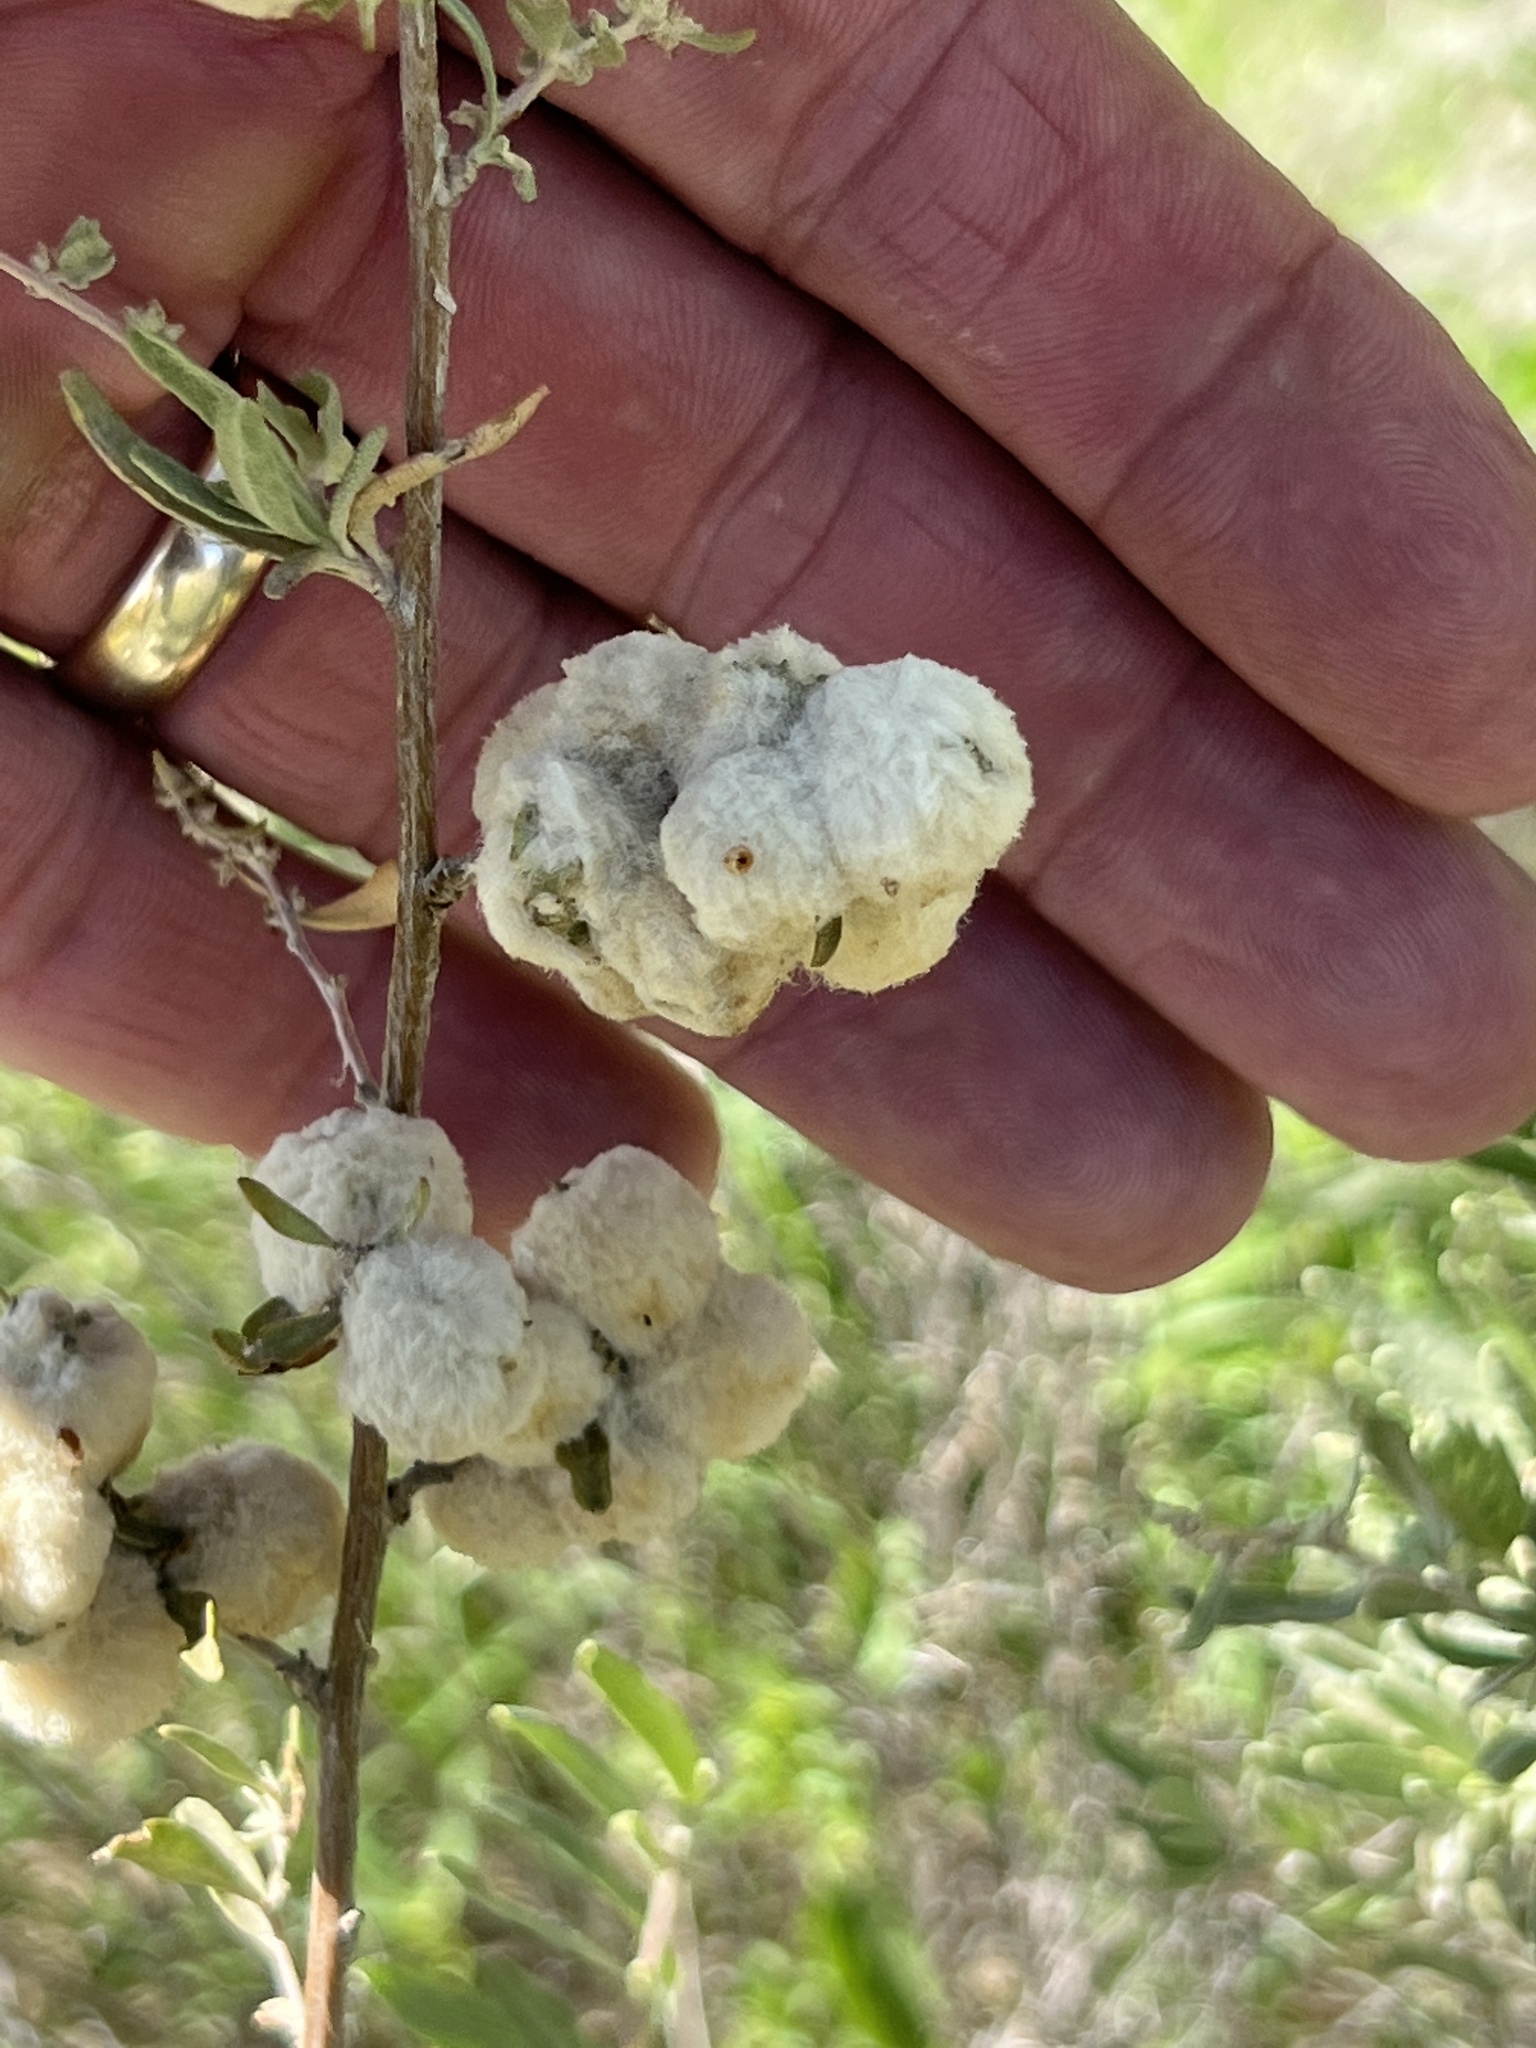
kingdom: Animalia
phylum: Arthropoda
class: Insecta
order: Diptera
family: Cecidomyiidae
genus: Asphondylia
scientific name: Asphondylia neomexicana
